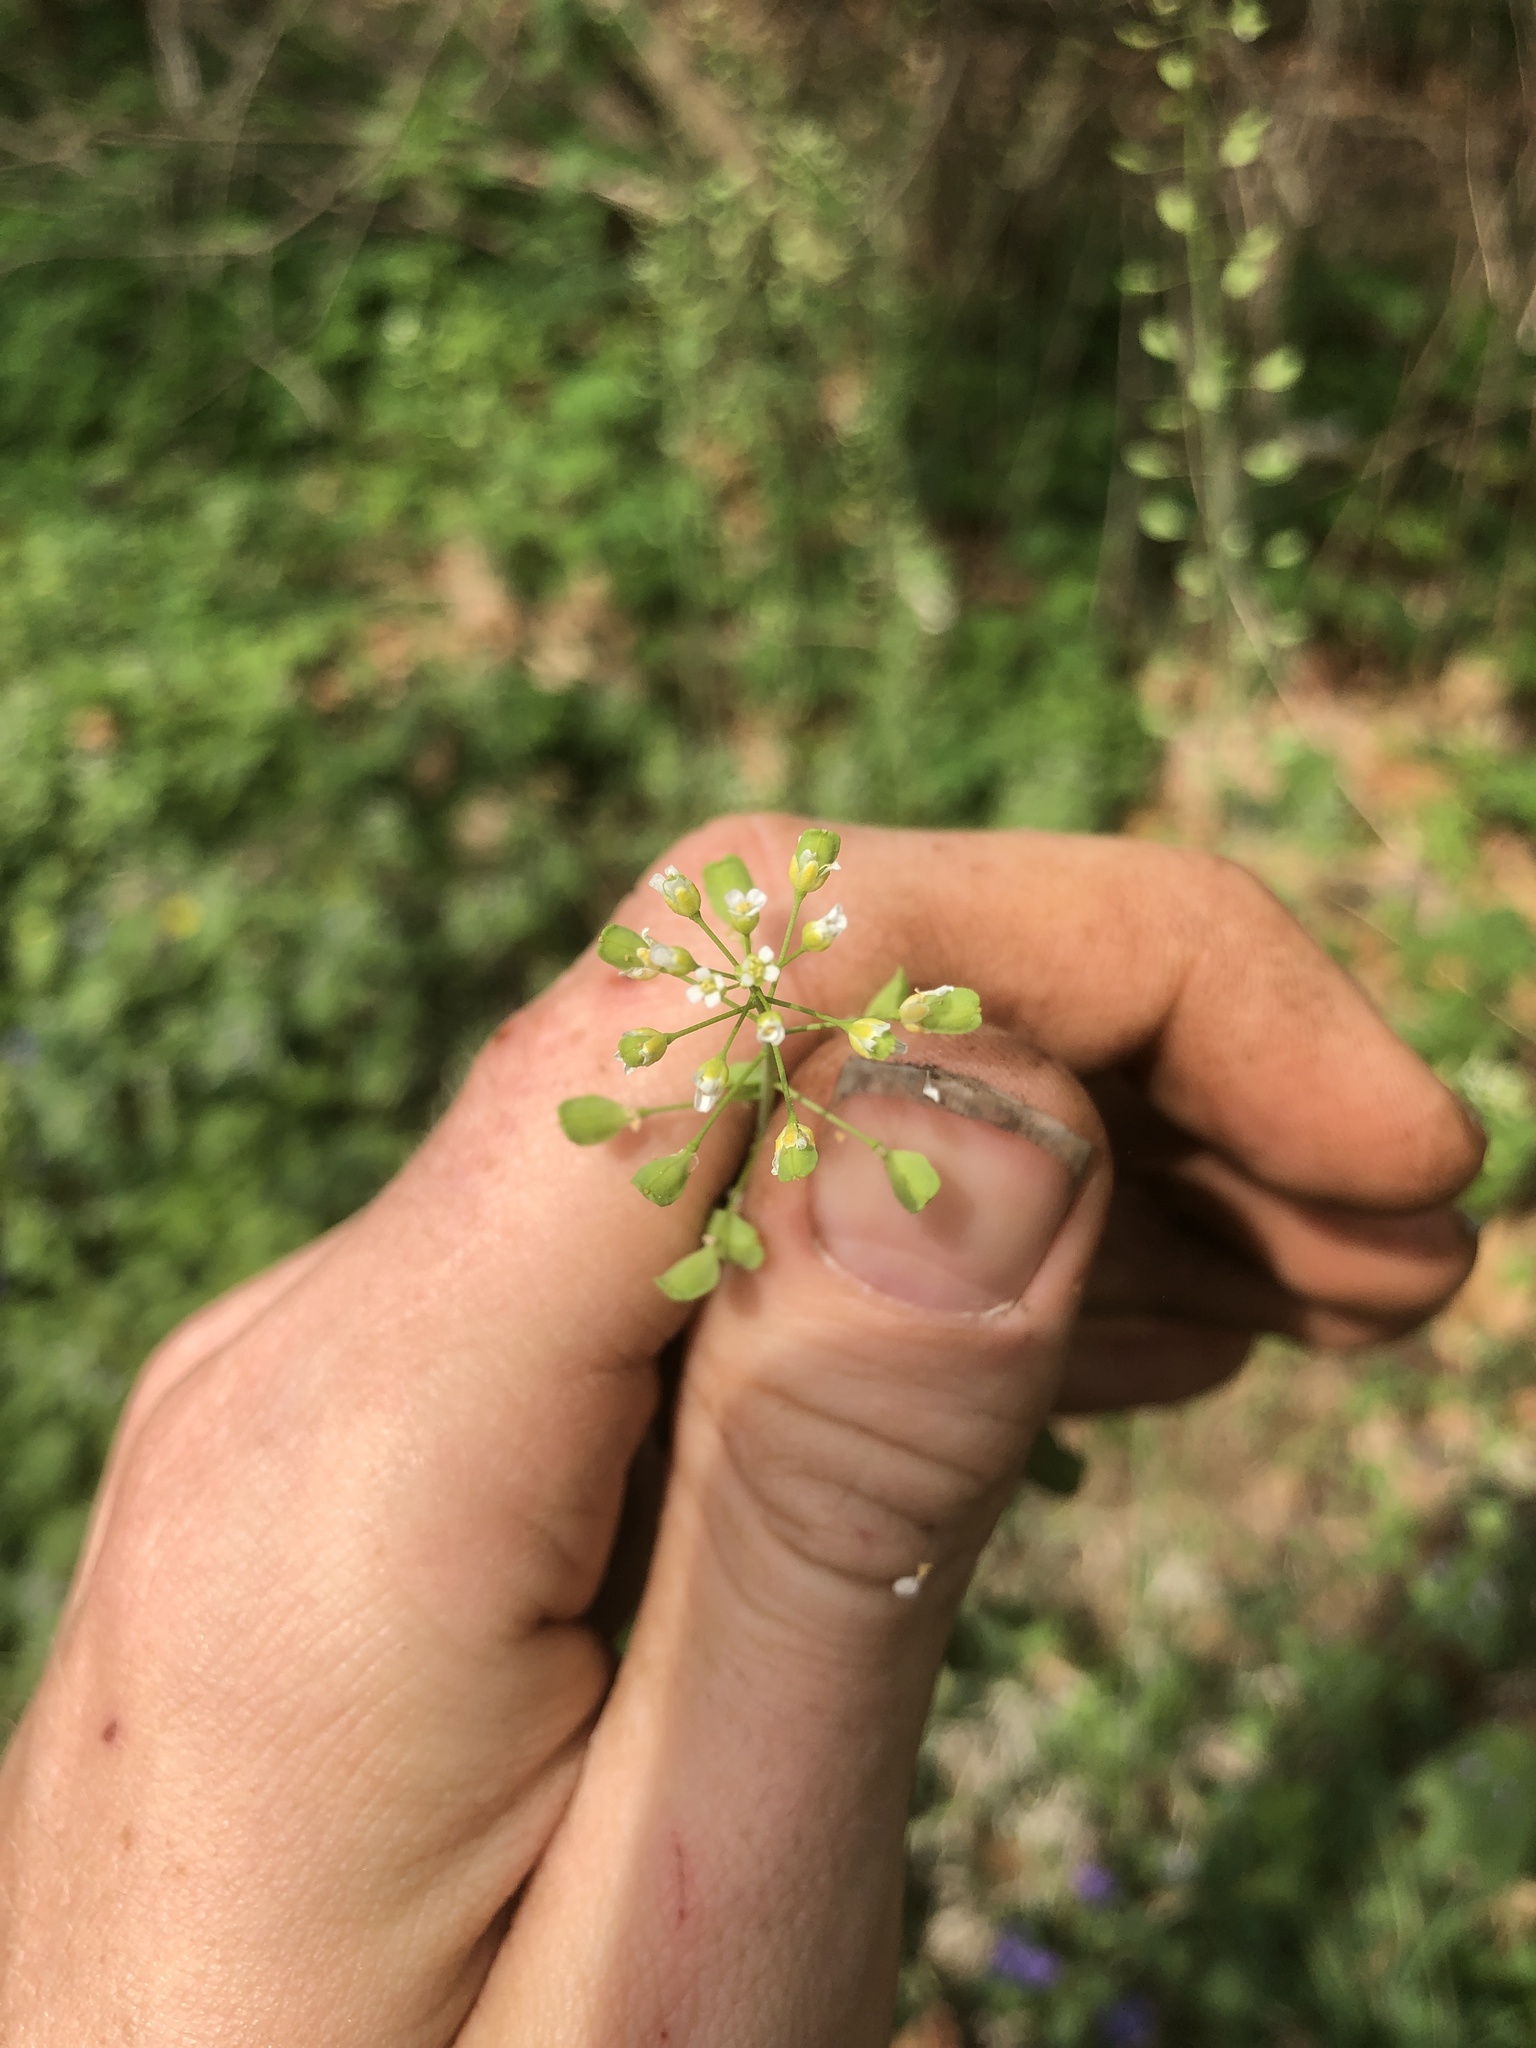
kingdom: Plantae
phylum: Tracheophyta
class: Magnoliopsida
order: Brassicales
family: Brassicaceae
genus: Mummenhoffia
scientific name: Mummenhoffia alliacea
